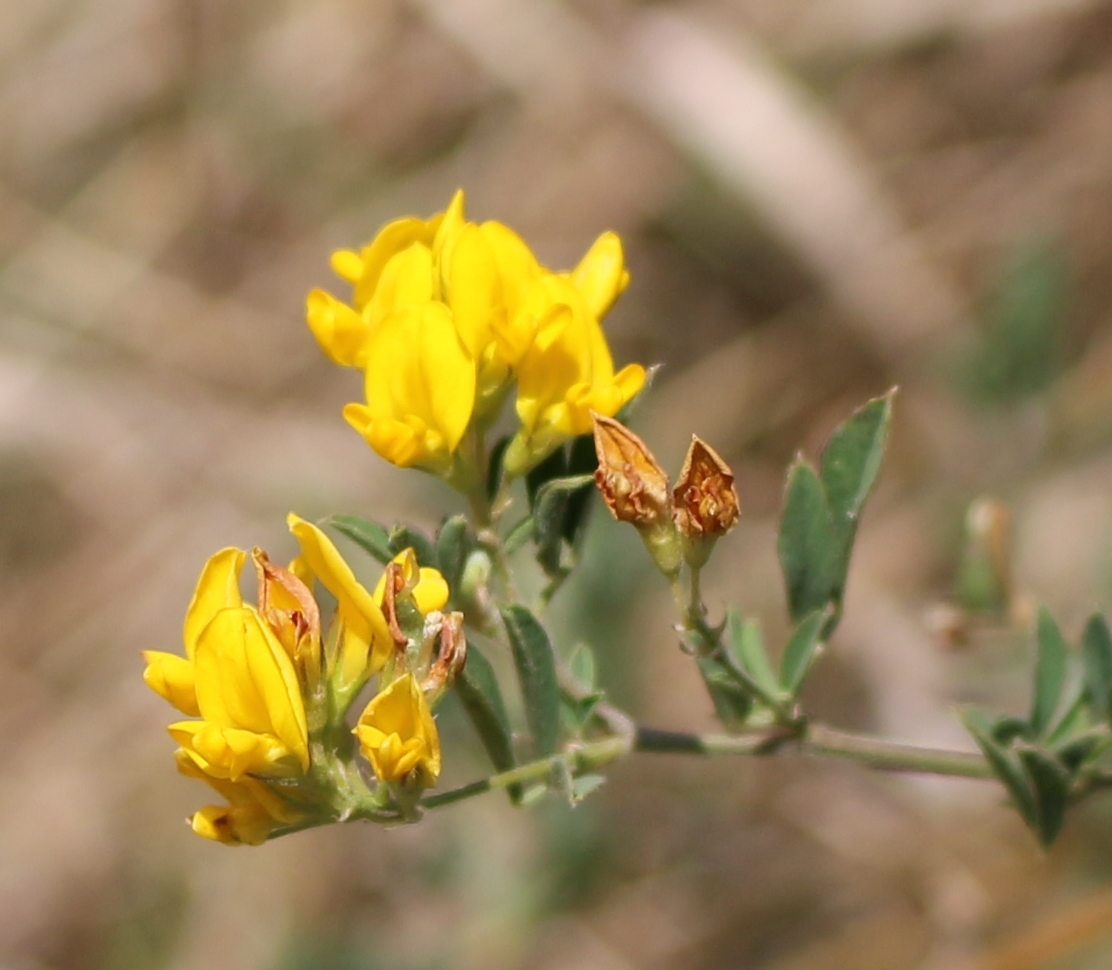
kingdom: Plantae
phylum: Tracheophyta
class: Magnoliopsida
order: Fabales
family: Fabaceae
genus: Medicago
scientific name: Medicago falcata
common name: Sickle medick
